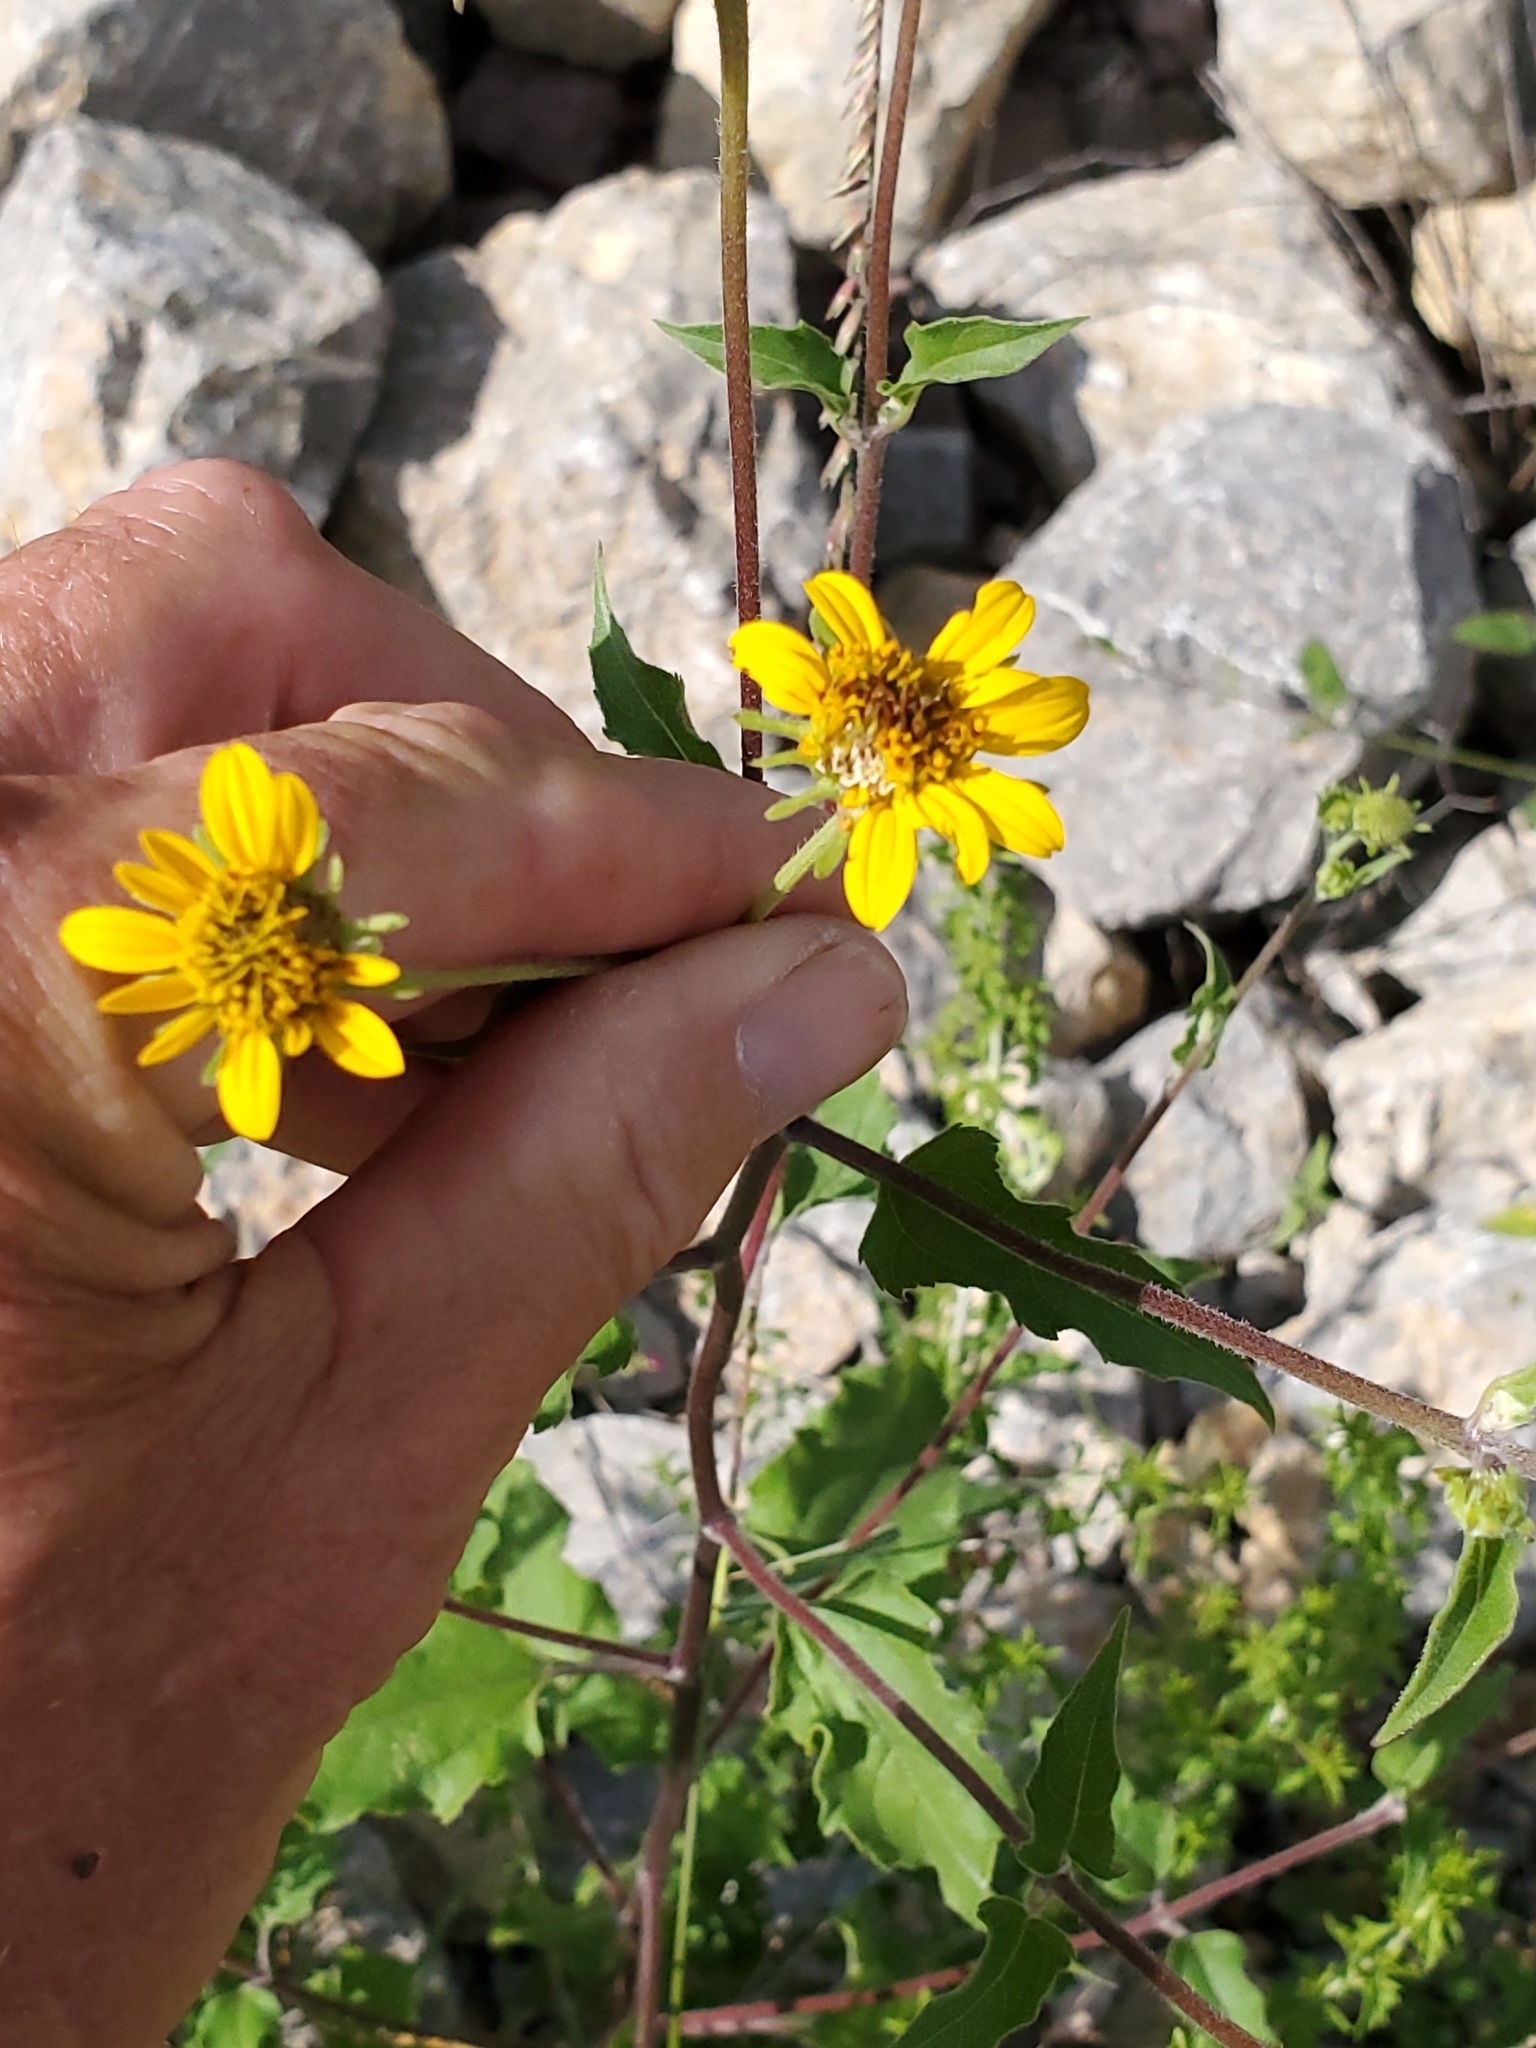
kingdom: Plantae
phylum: Tracheophyta
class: Magnoliopsida
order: Asterales
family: Asteraceae
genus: Viguiera
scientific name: Viguiera dentata
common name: Toothleaf
